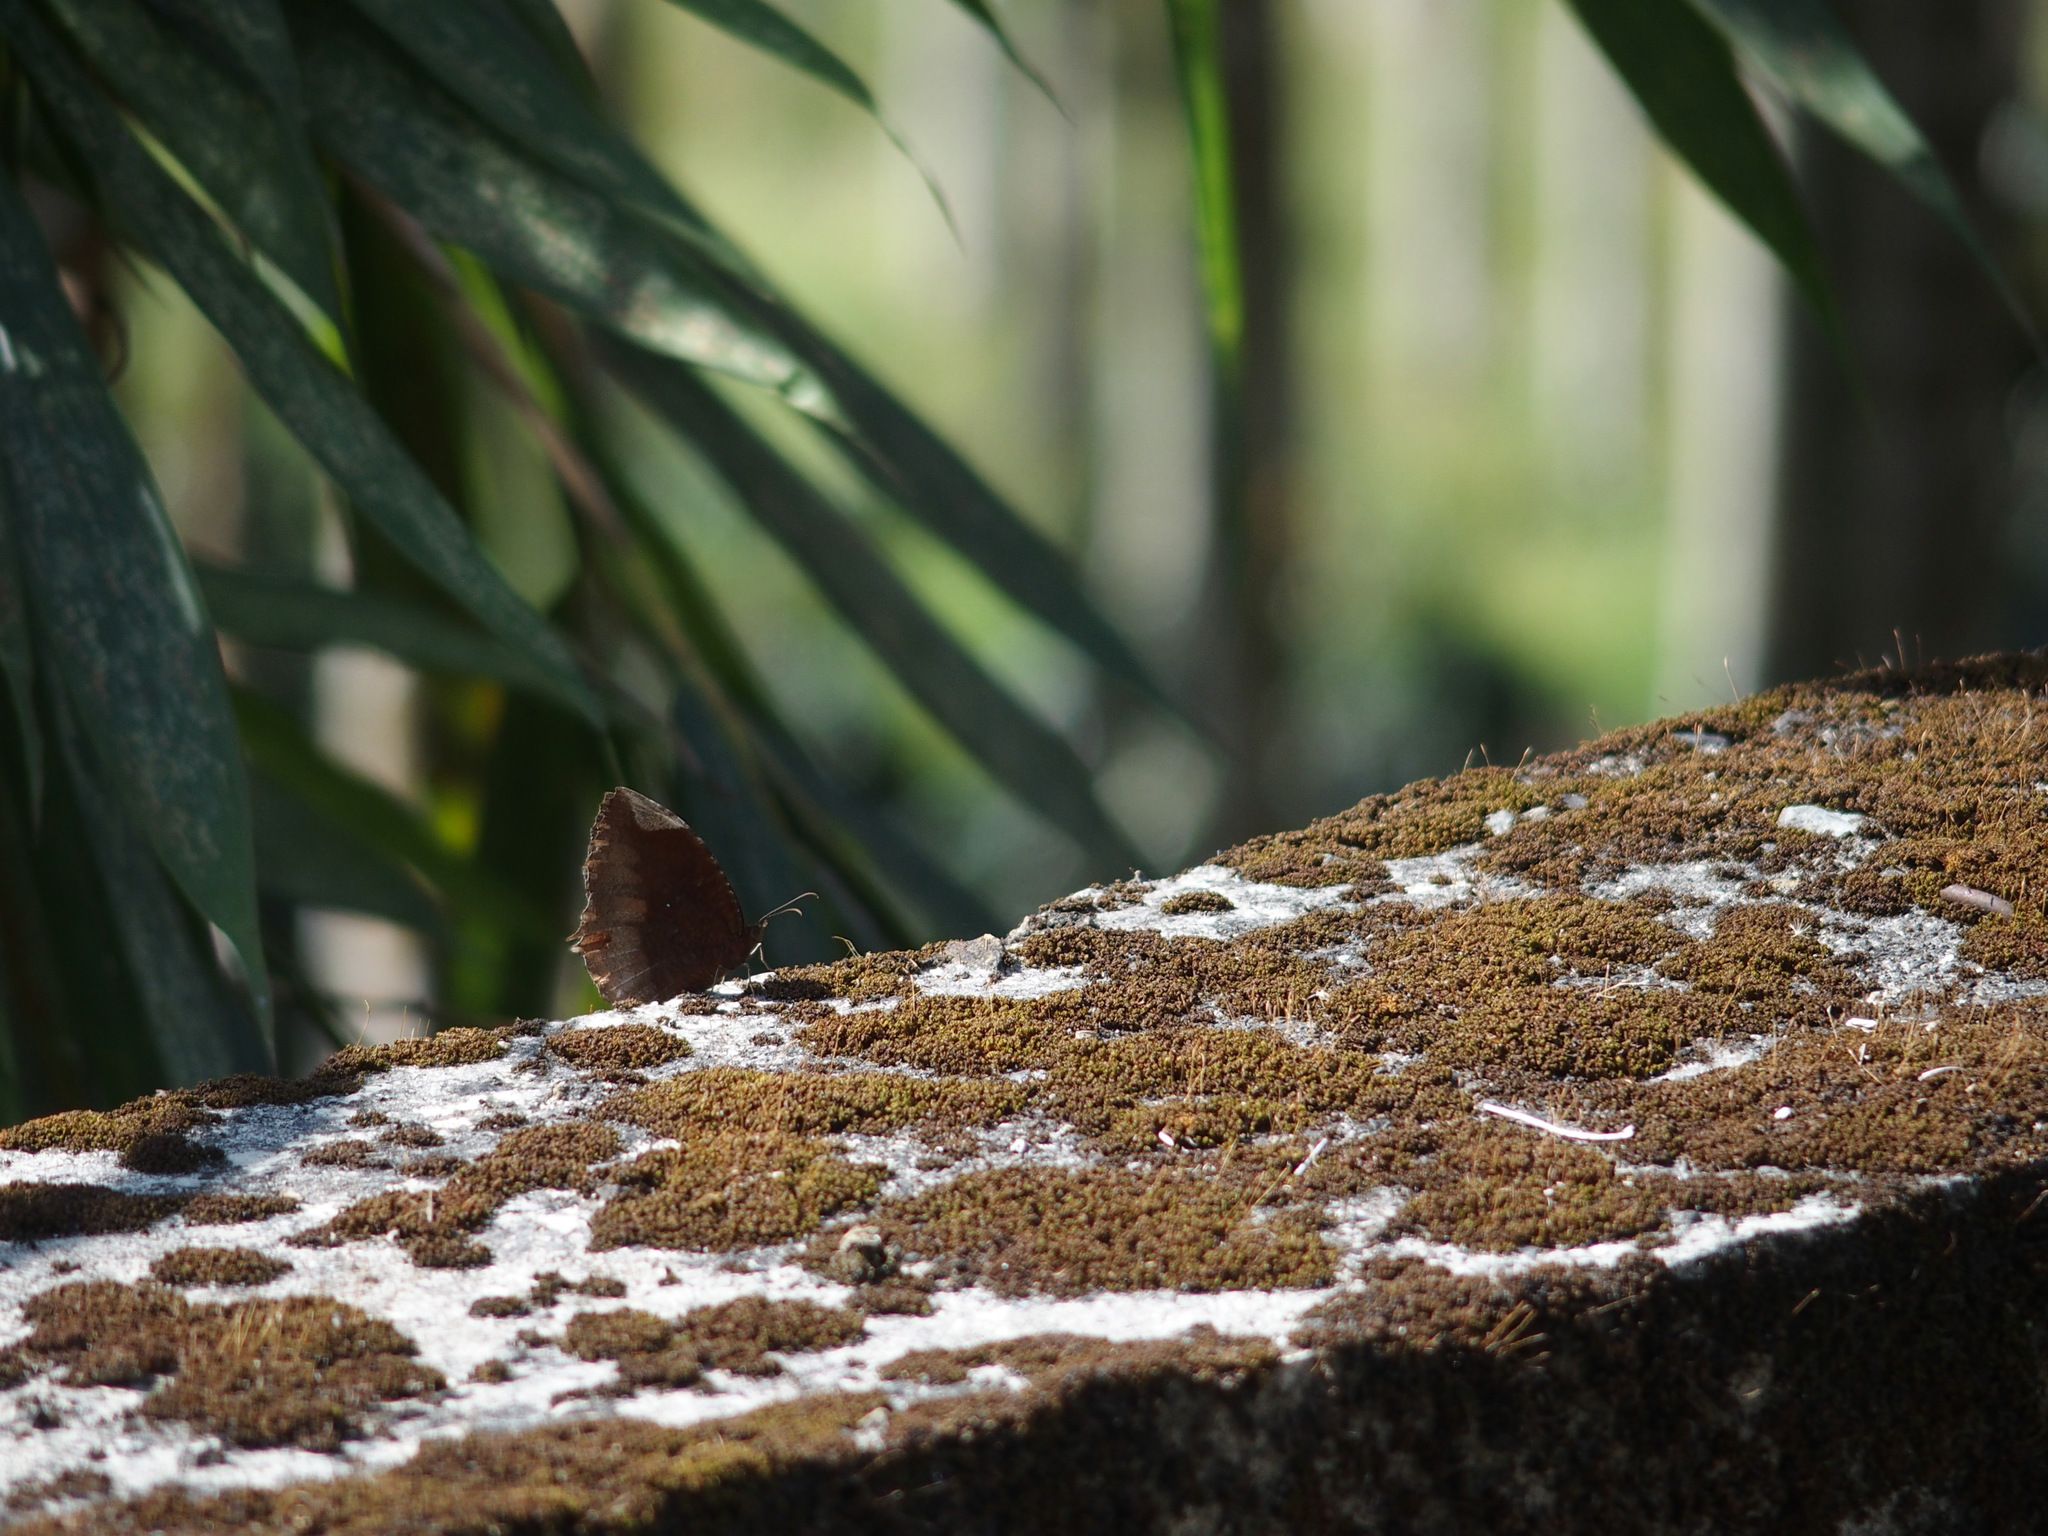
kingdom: Animalia
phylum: Arthropoda
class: Insecta
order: Lepidoptera
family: Nymphalidae
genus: Elymnias
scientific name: Elymnias hypermnestra
